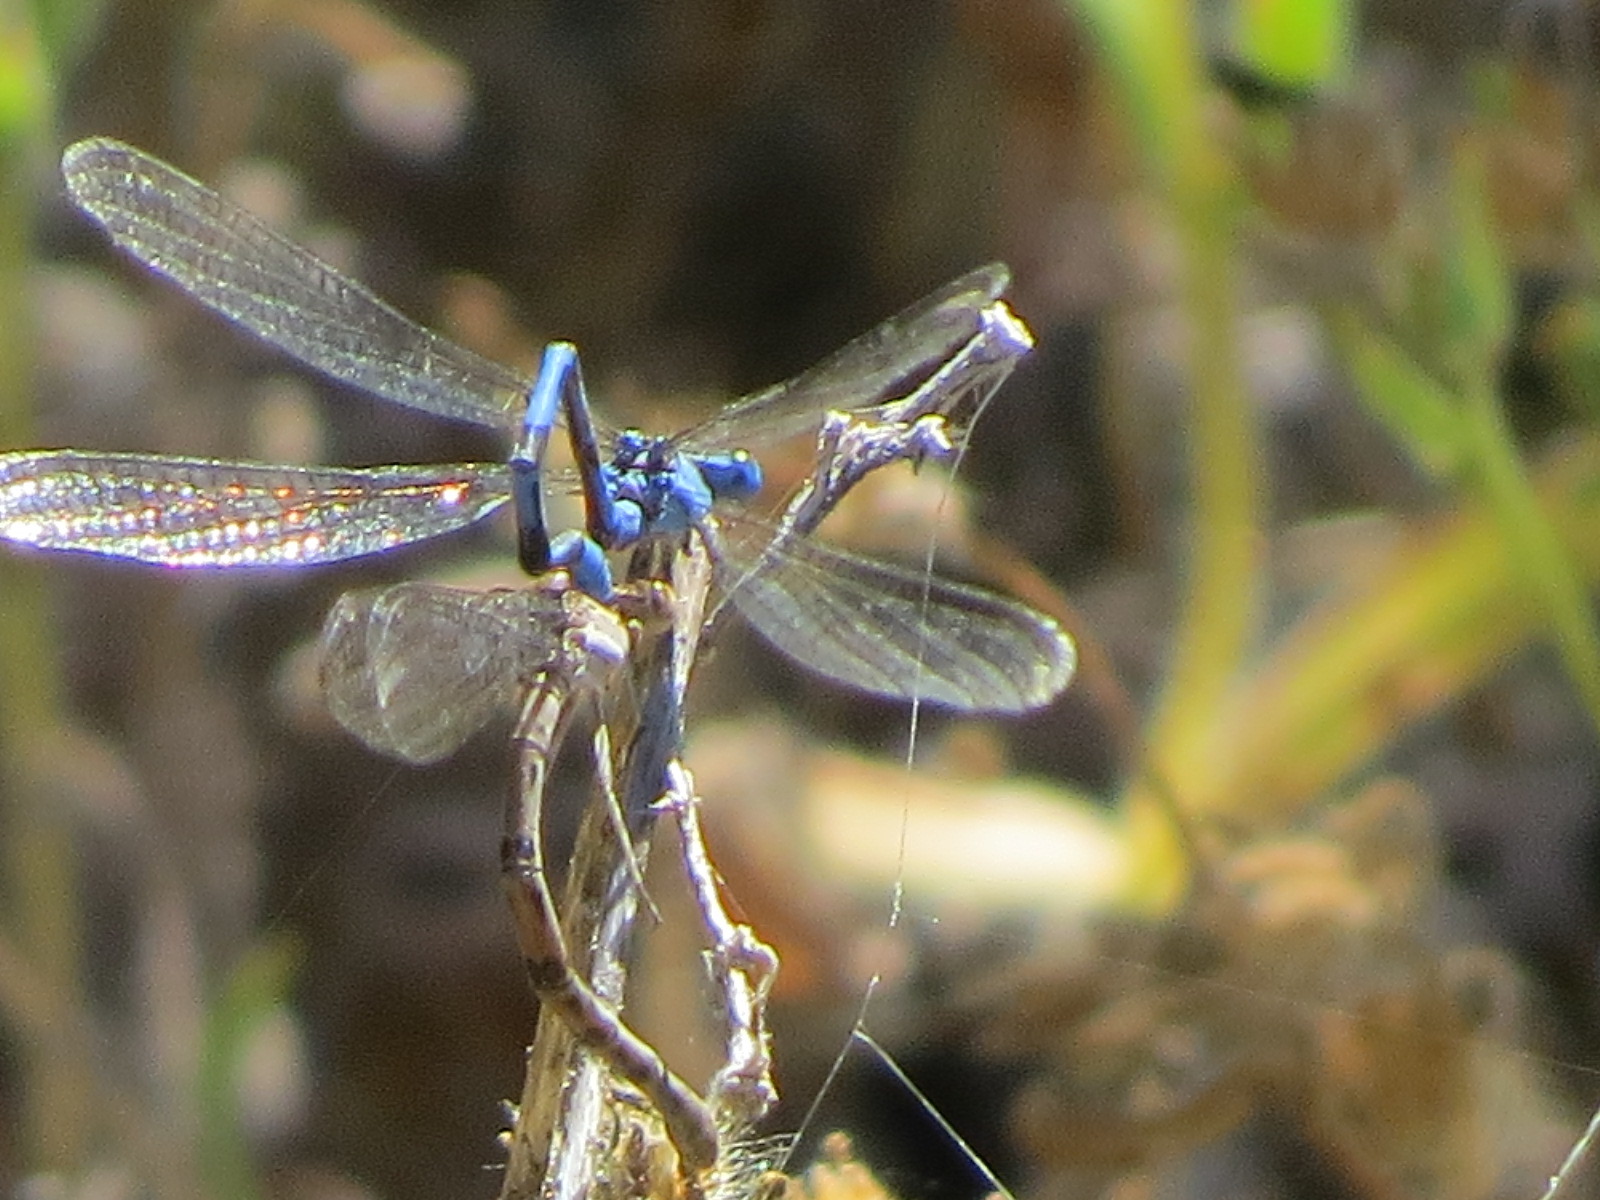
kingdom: Animalia
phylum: Arthropoda
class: Insecta
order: Odonata
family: Coenagrionidae
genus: Argia
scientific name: Argia vivida
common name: Vivid dancer
